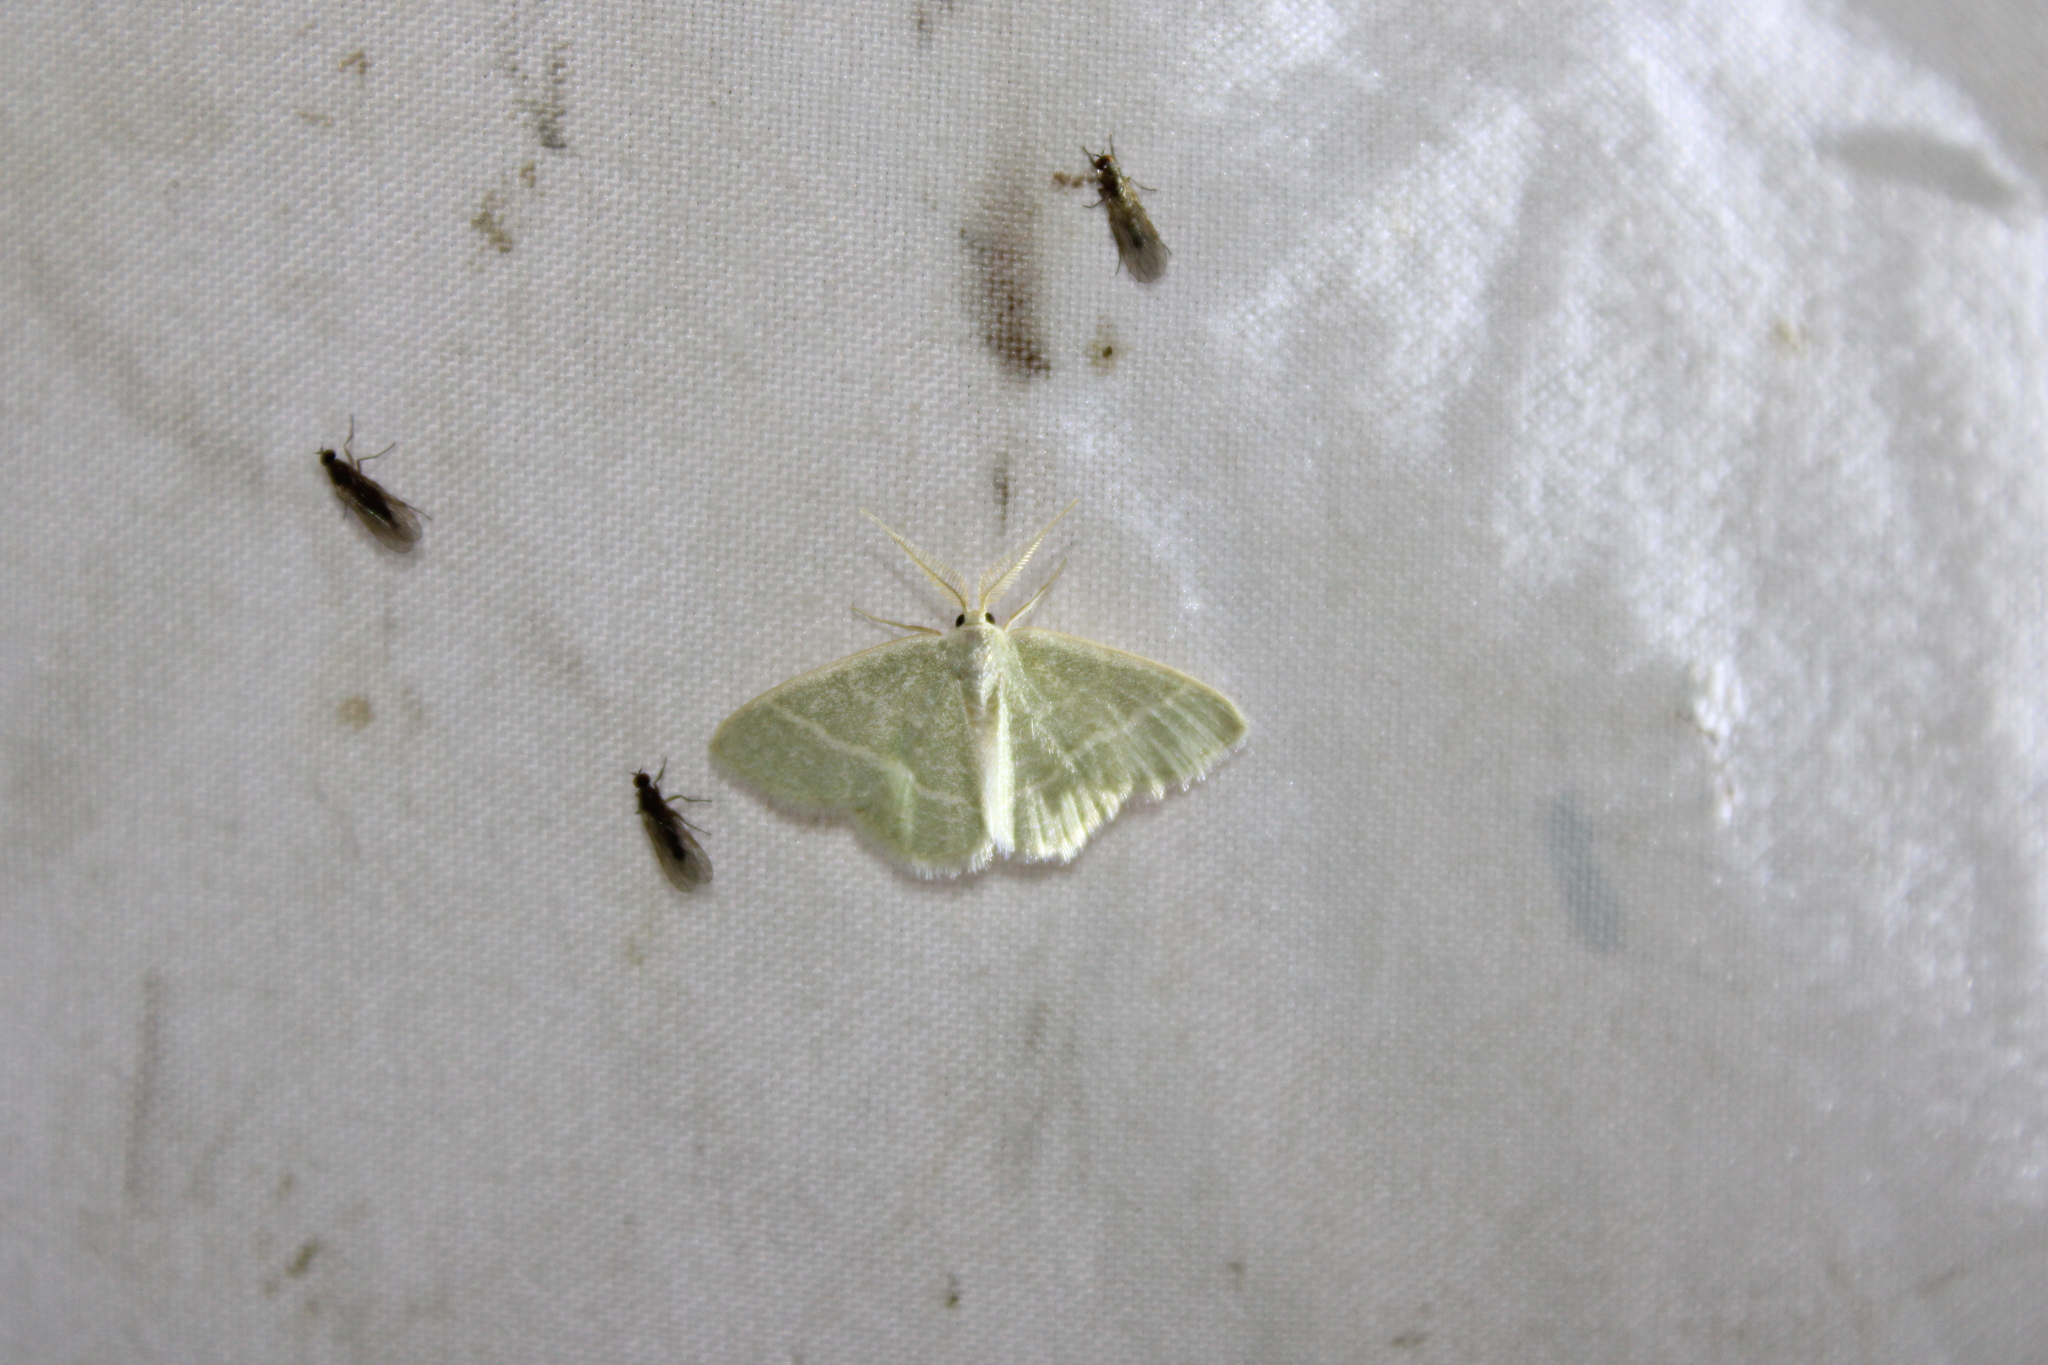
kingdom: Animalia
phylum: Arthropoda
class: Insecta
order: Lepidoptera
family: Geometridae
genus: Chlorochlamys
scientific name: Chlorochlamys chloroleucaria
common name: Blackberry looper
